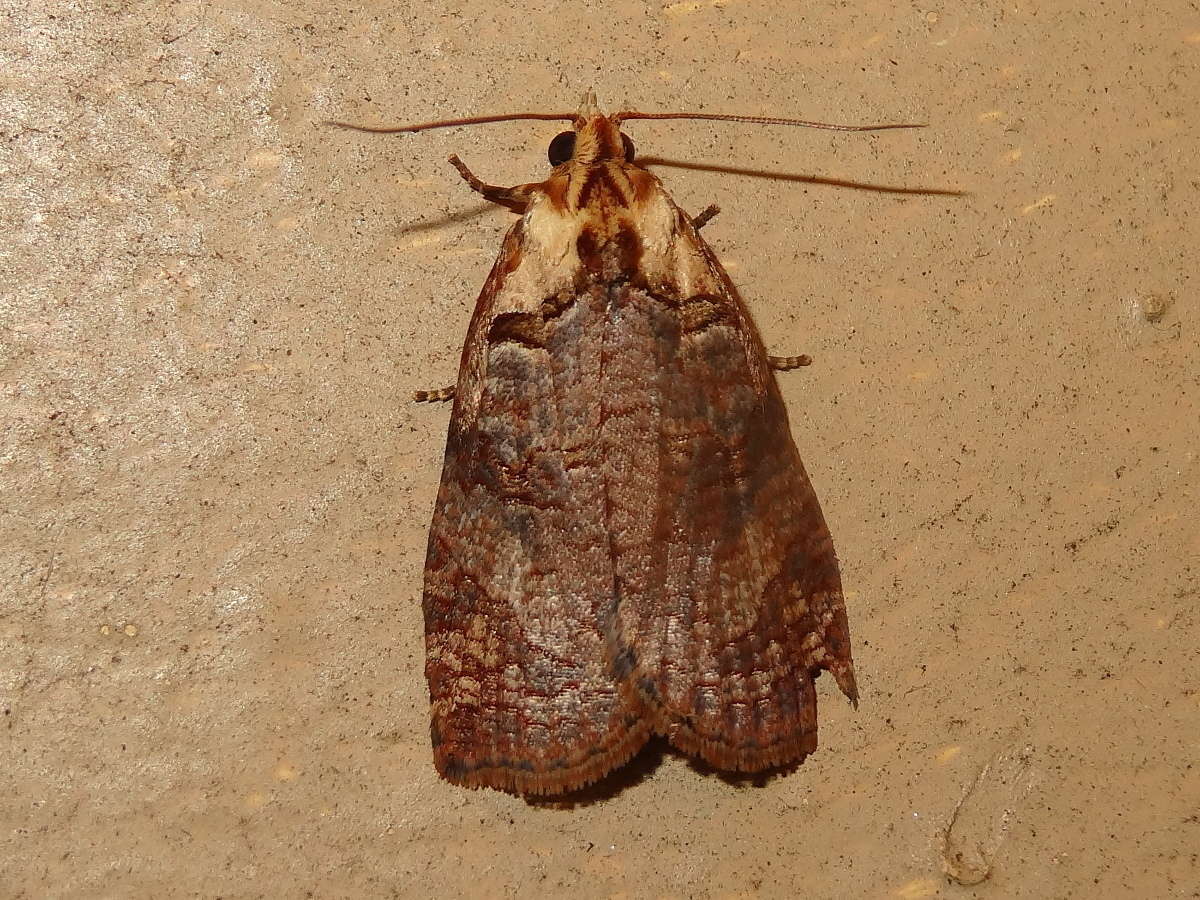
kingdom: Animalia
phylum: Arthropoda
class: Insecta
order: Lepidoptera
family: Tortricidae
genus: Cryptoptila
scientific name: Cryptoptila australana
